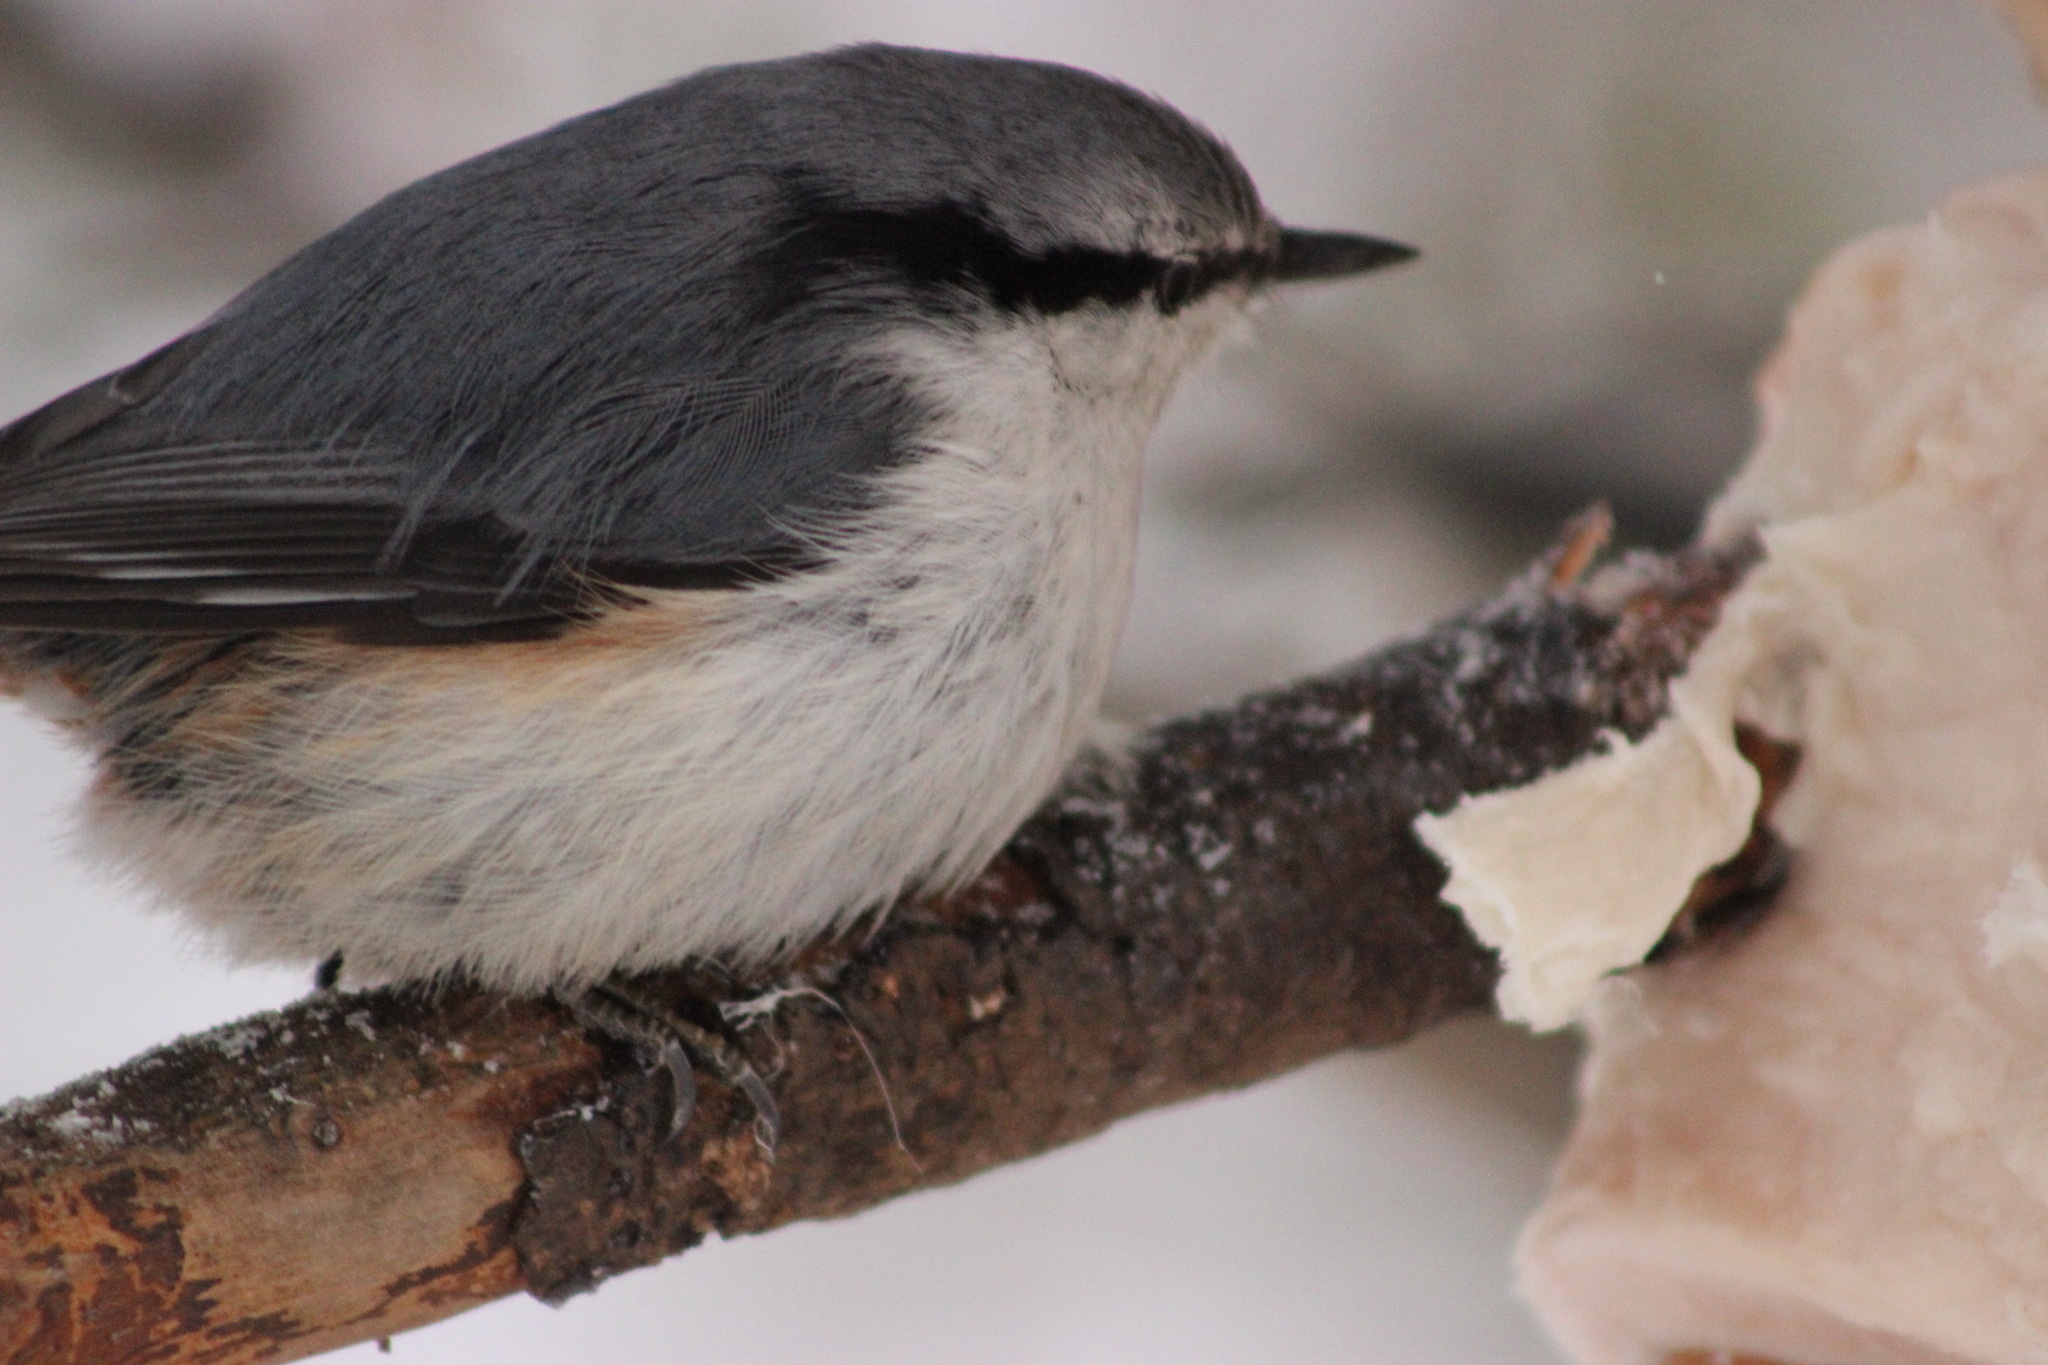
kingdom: Animalia
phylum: Chordata
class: Aves
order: Passeriformes
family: Sittidae
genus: Sitta
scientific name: Sitta europaea
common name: Eurasian nuthatch
